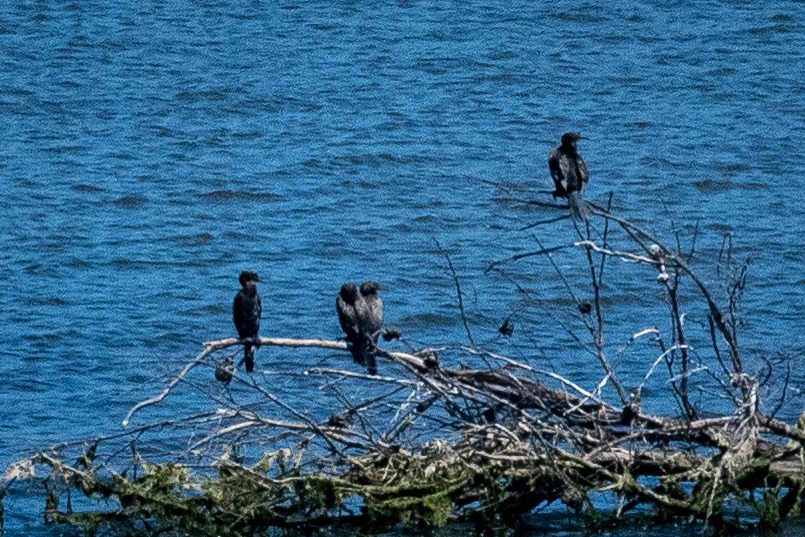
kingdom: Animalia
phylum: Chordata
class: Aves
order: Suliformes
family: Phalacrocoracidae
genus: Microcarbo
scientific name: Microcarbo africanus
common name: Long-tailed cormorant
